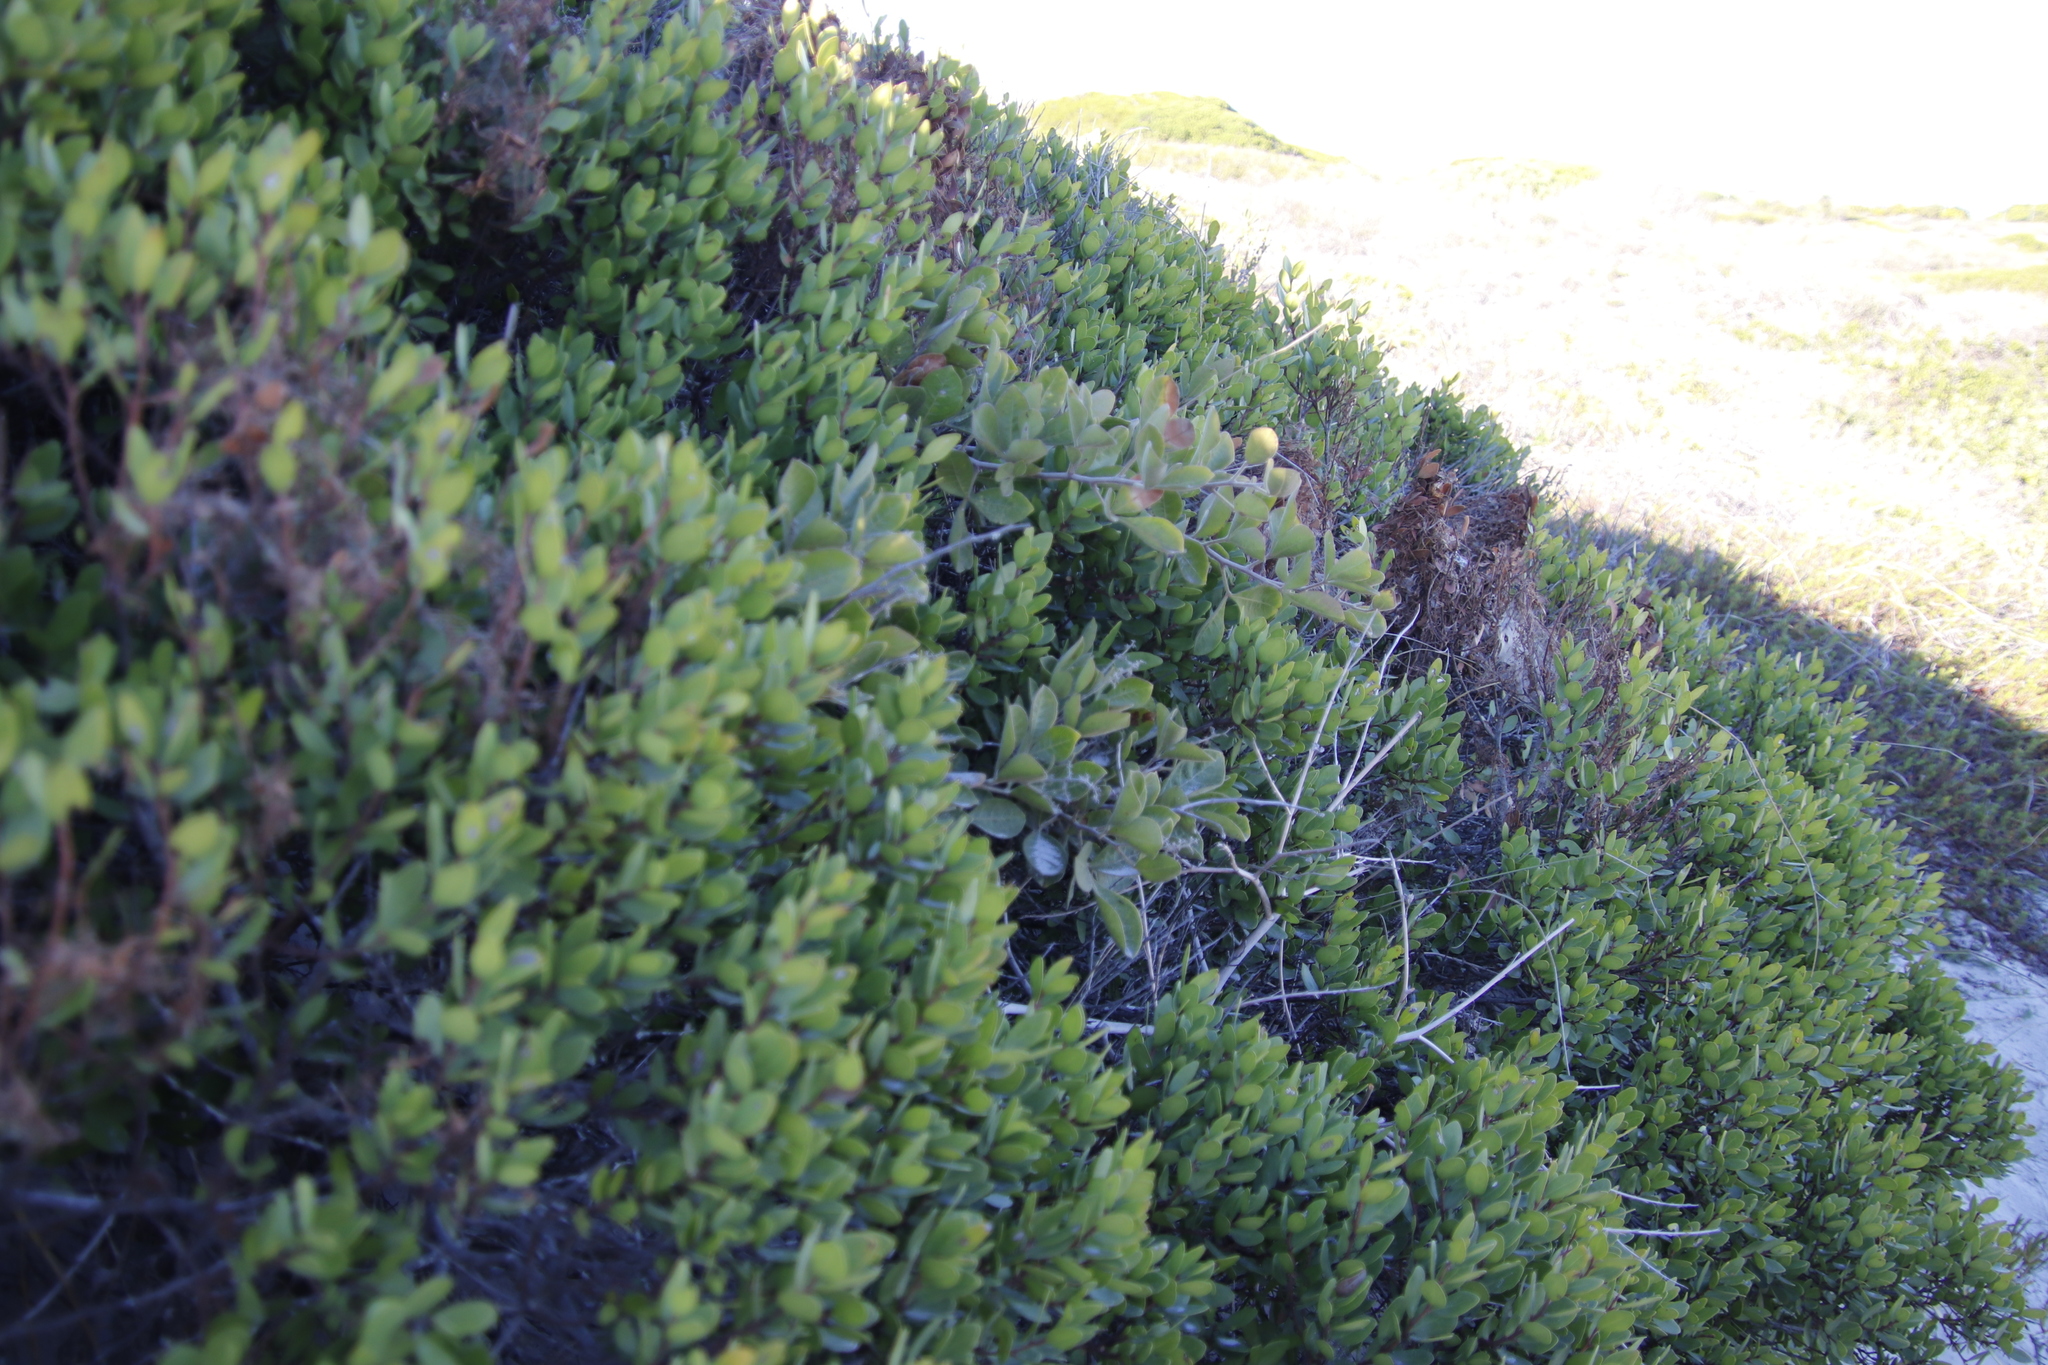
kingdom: Plantae
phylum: Tracheophyta
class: Magnoliopsida
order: Sapindales
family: Anacardiaceae
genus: Searsia
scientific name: Searsia laevigata
